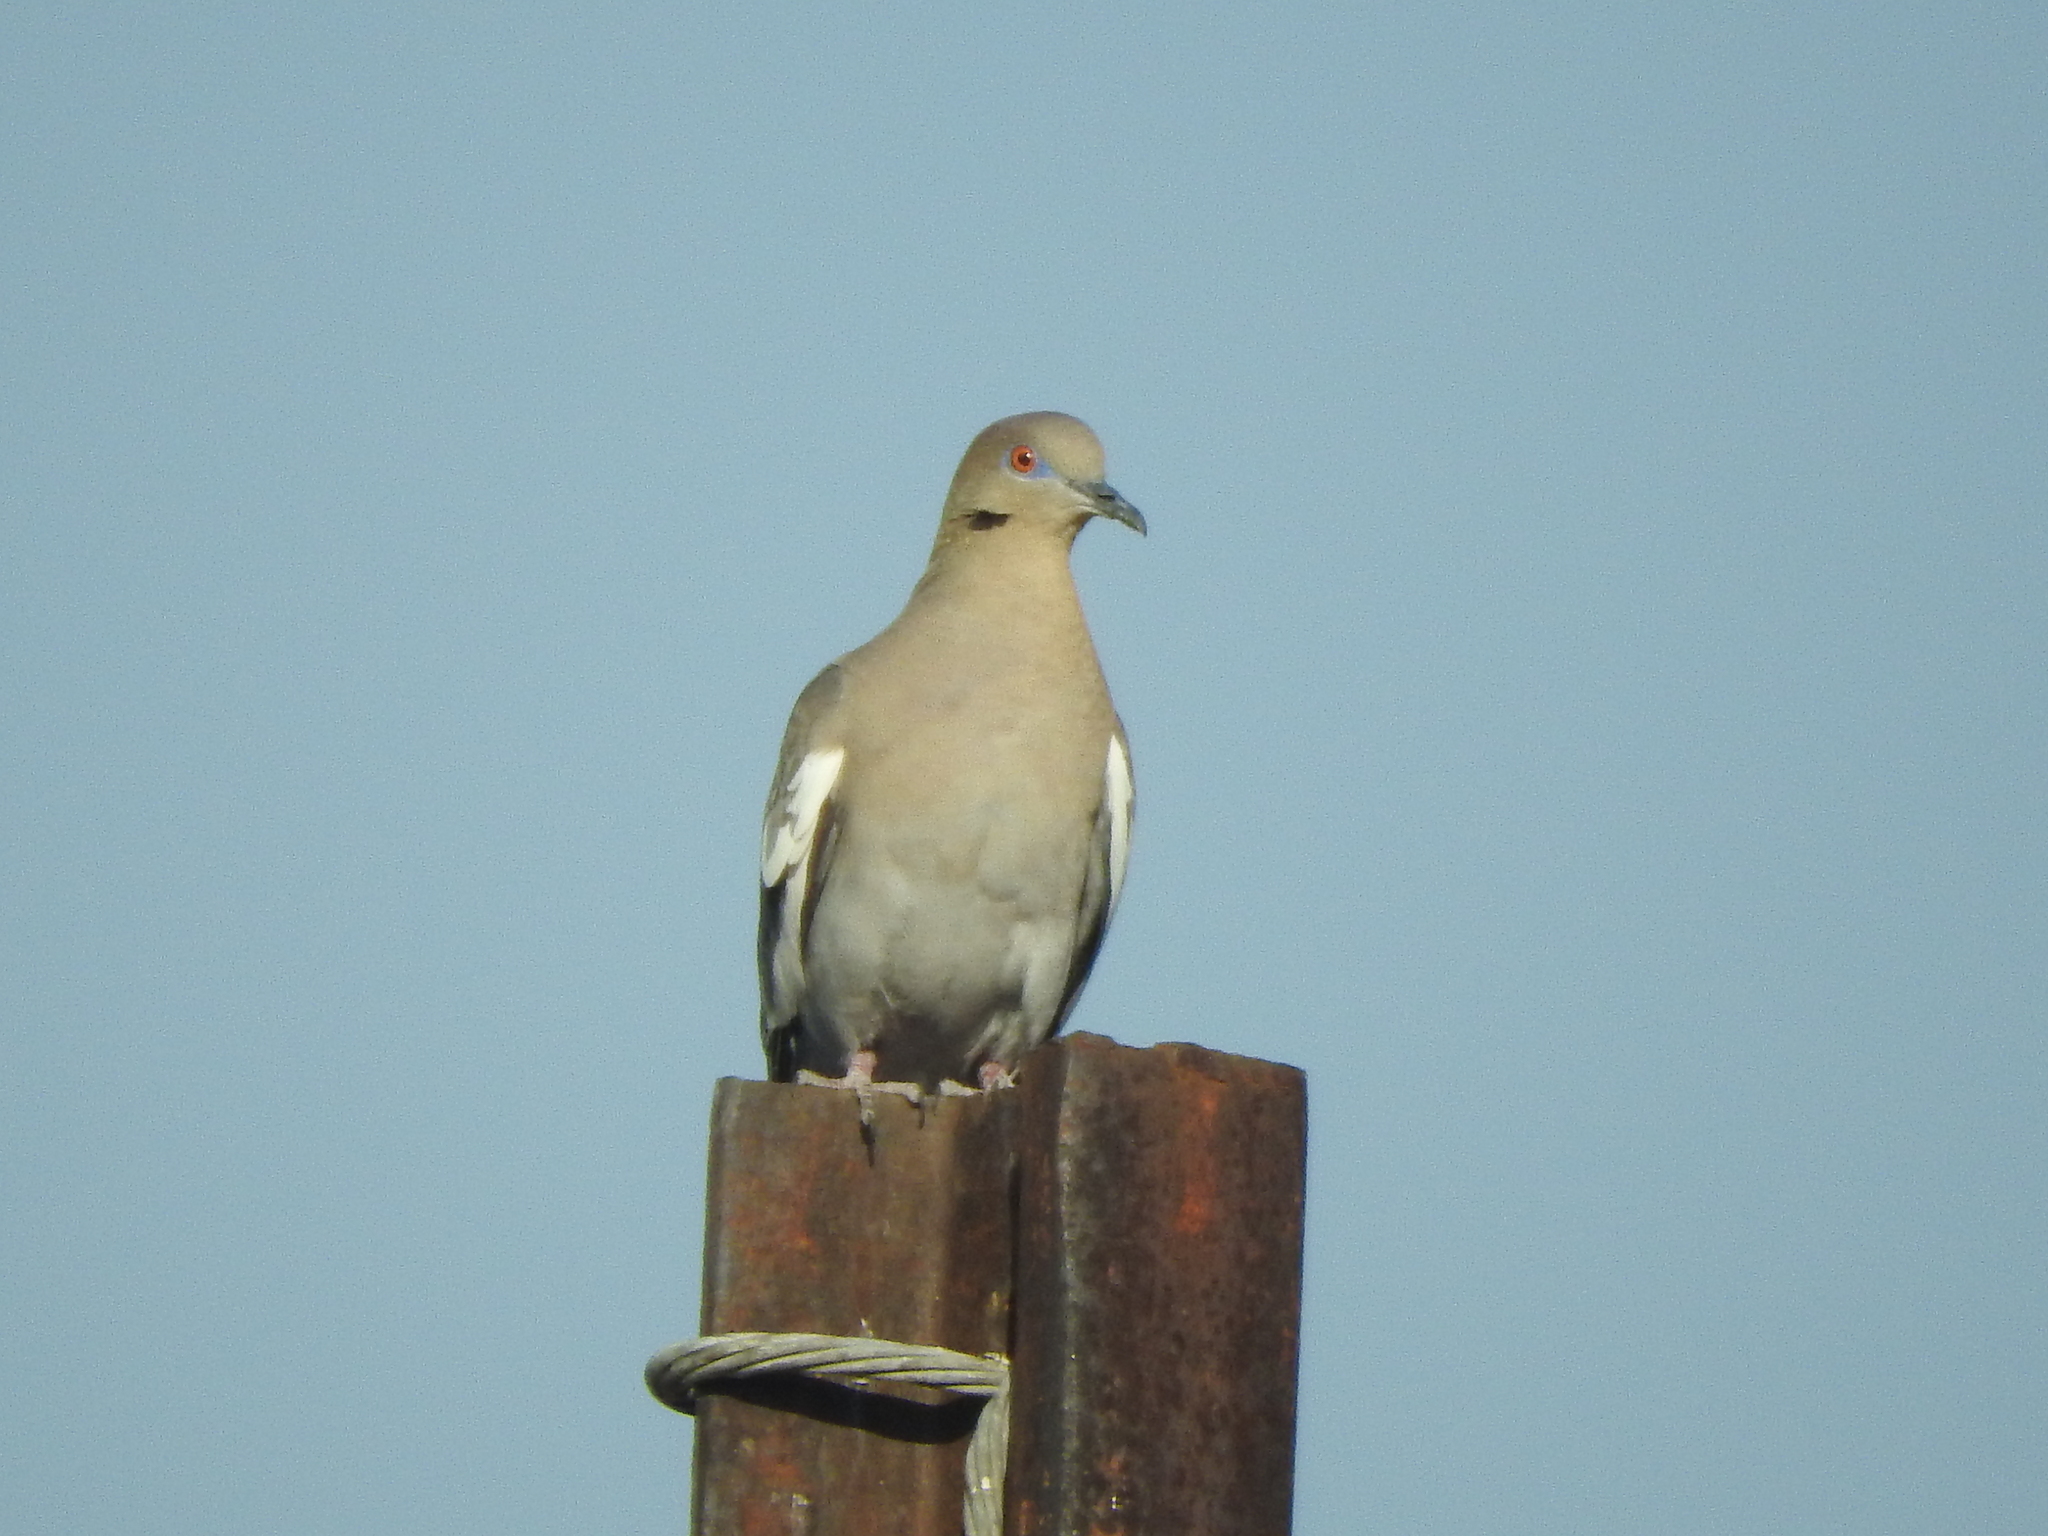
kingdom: Animalia
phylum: Chordata
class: Aves
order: Columbiformes
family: Columbidae
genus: Zenaida
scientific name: Zenaida asiatica
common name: White-winged dove
